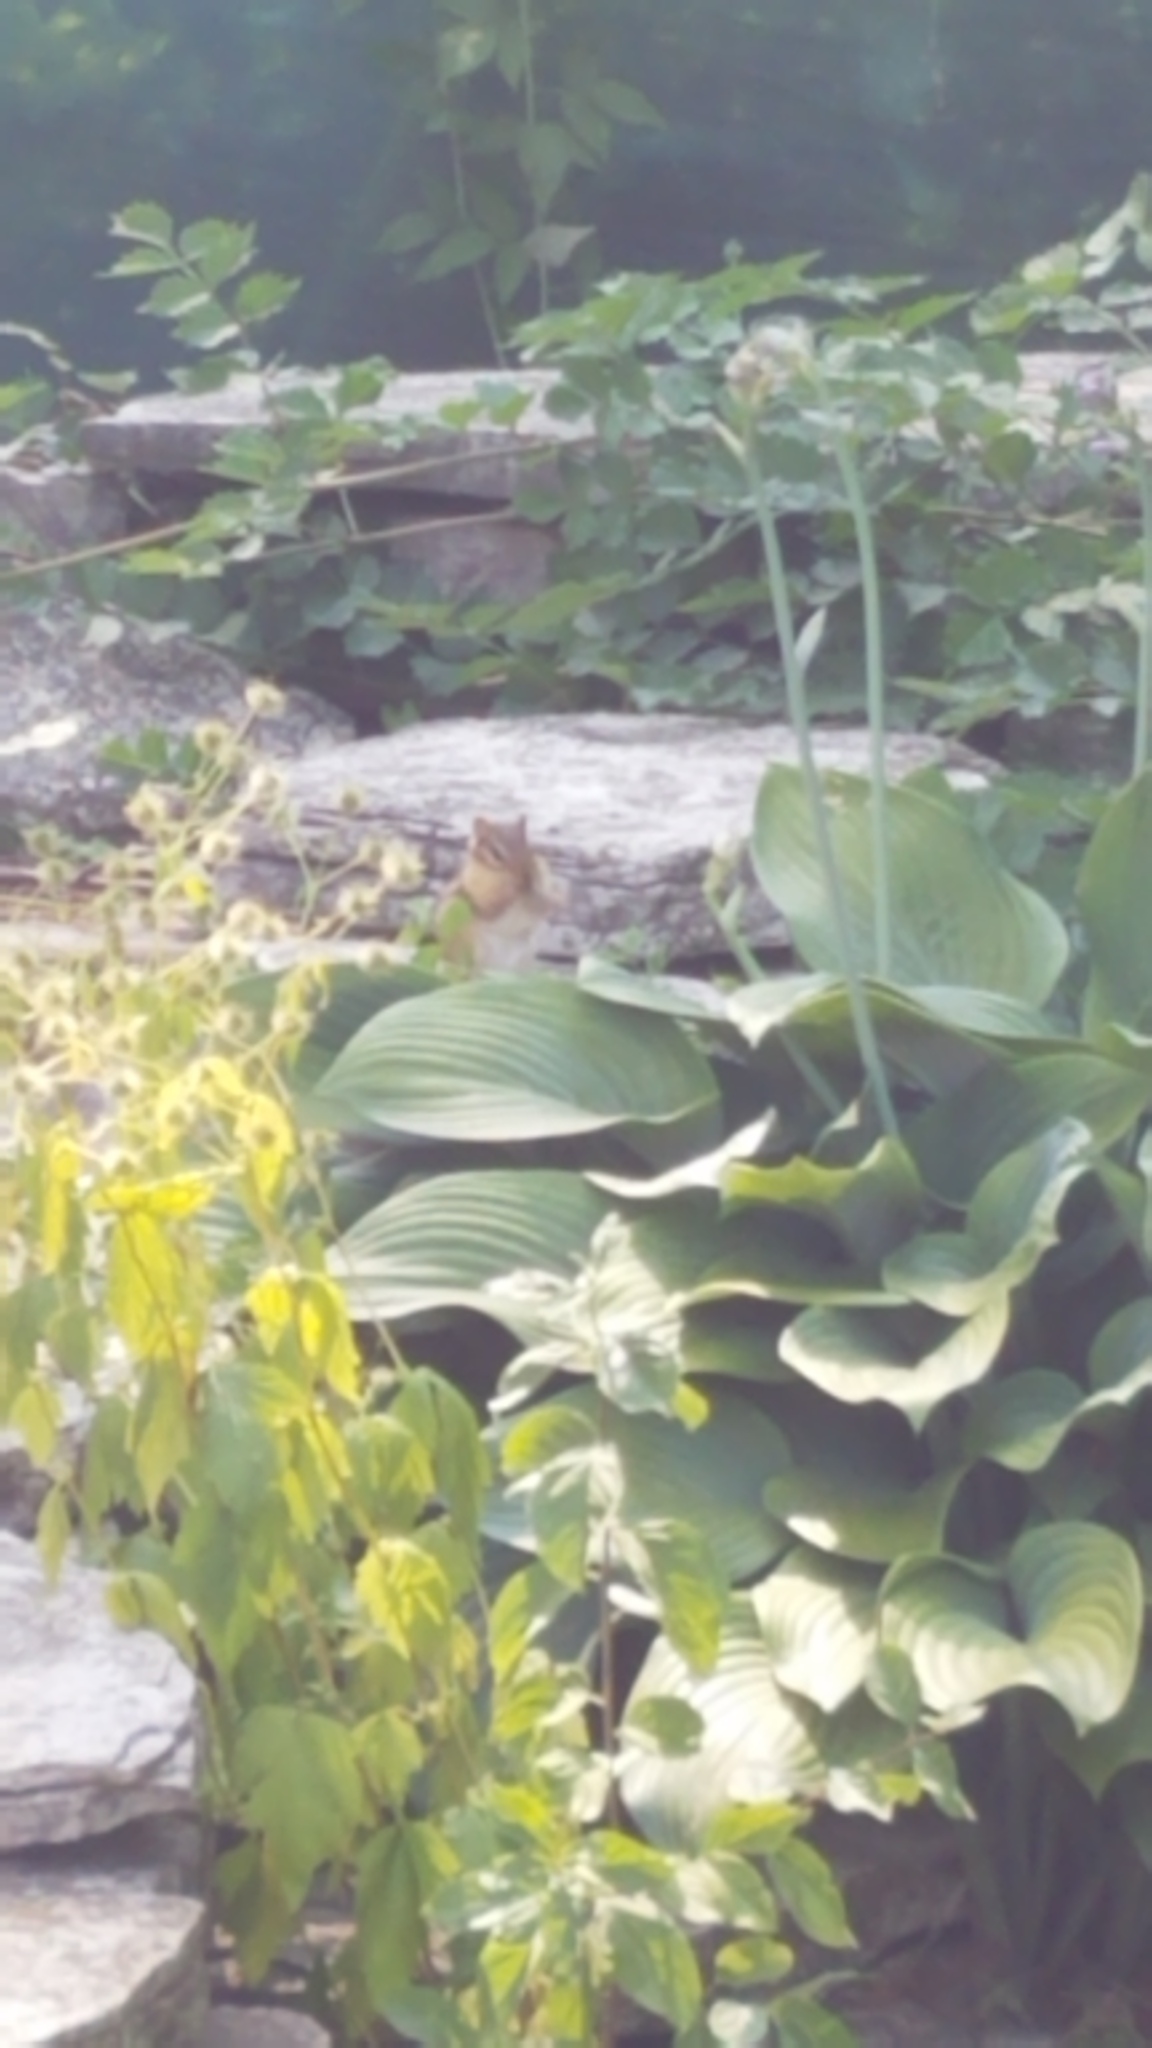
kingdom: Animalia
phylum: Chordata
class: Mammalia
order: Rodentia
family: Sciuridae
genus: Tamias
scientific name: Tamias striatus
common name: Eastern chipmunk
